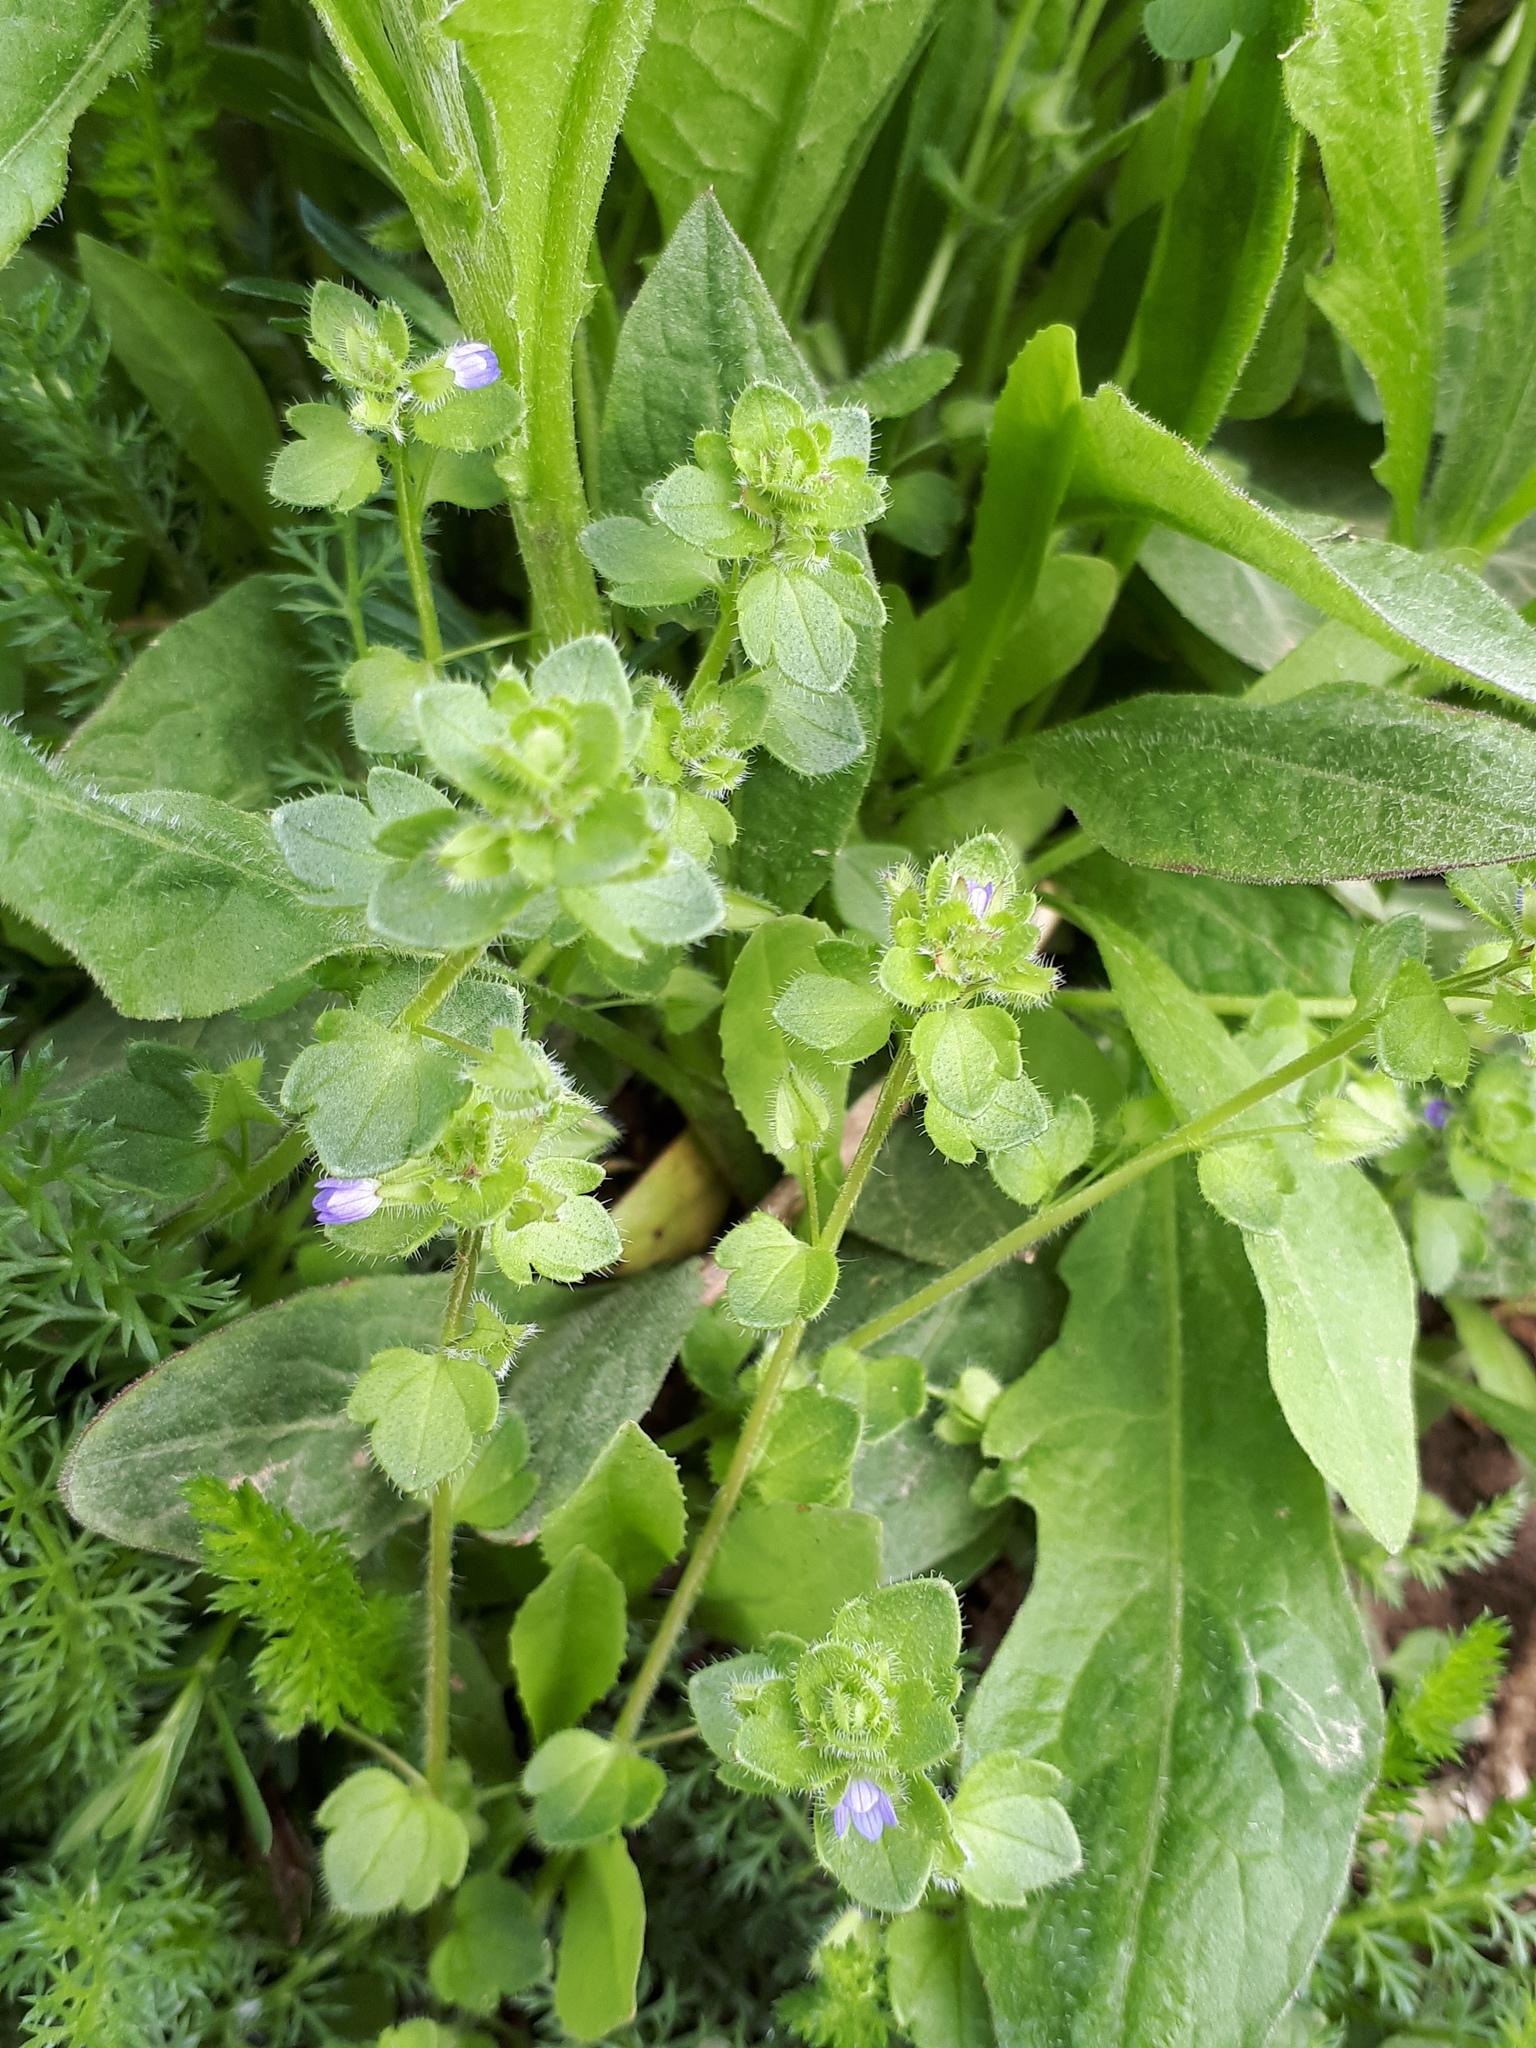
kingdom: Plantae
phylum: Tracheophyta
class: Magnoliopsida
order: Lamiales
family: Plantaginaceae
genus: Veronica
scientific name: Veronica hederifolia
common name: Ivy-leaved speedwell
